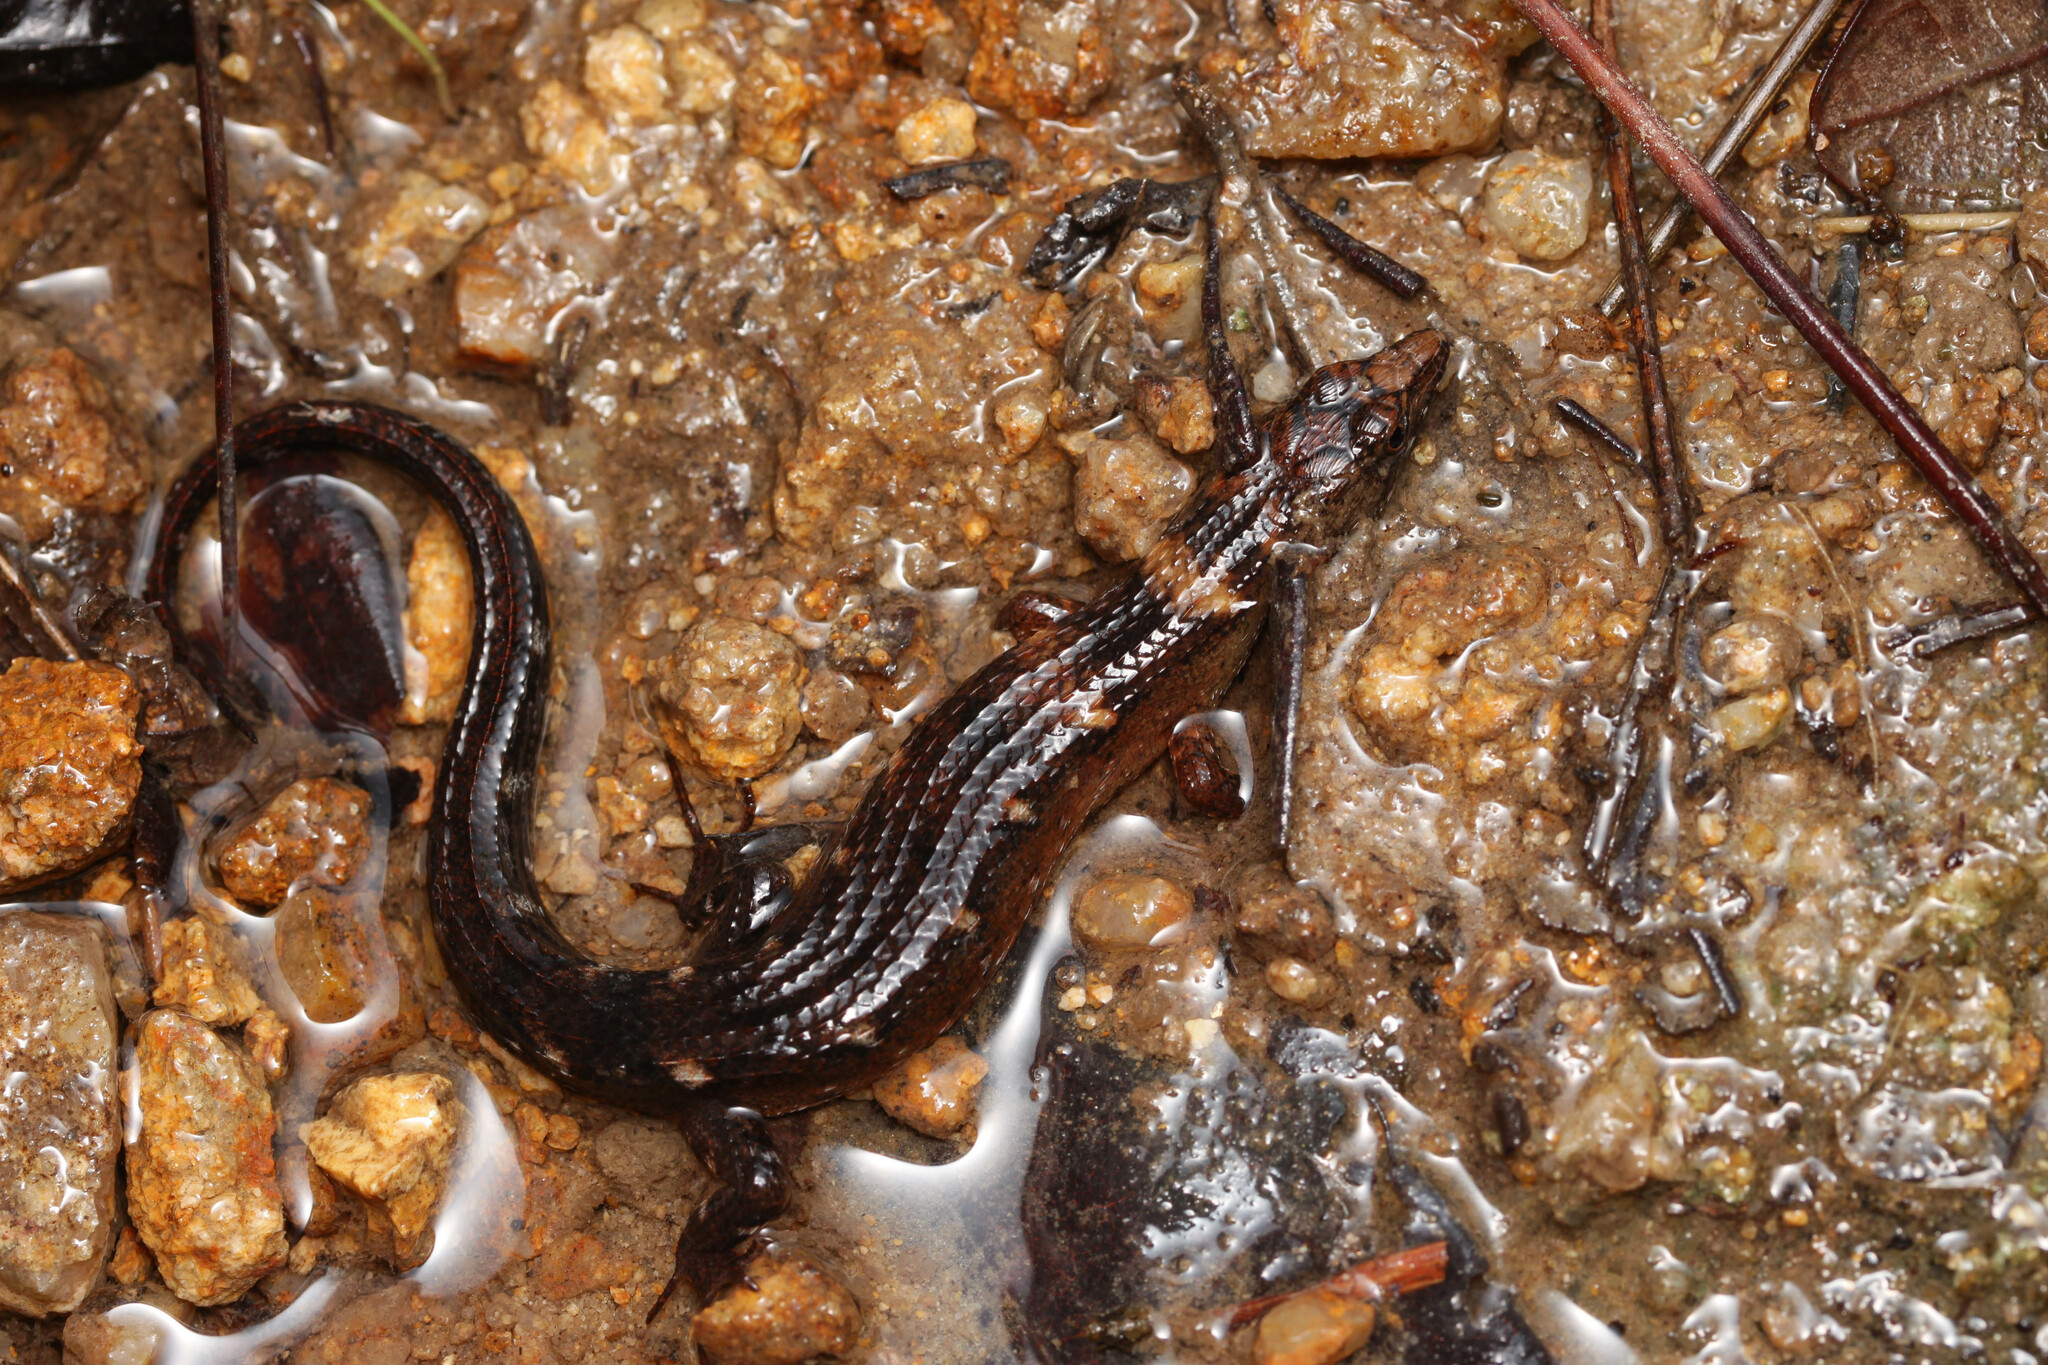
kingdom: Animalia
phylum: Chordata
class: Squamata
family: Scincidae
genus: Tropidophorus
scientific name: Tropidophorus sinicus
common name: Chinese water skink
